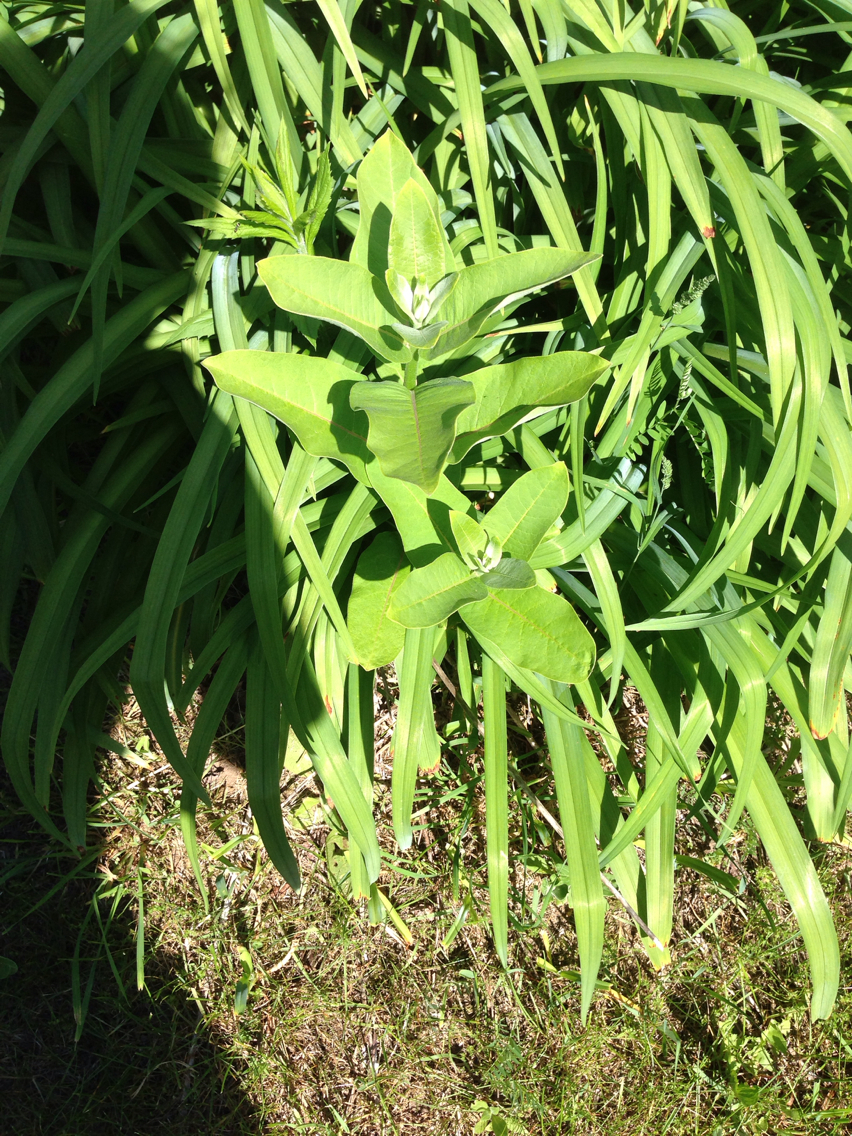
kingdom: Plantae
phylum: Tracheophyta
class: Magnoliopsida
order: Gentianales
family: Apocynaceae
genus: Asclepias
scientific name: Asclepias syriaca
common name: Common milkweed
